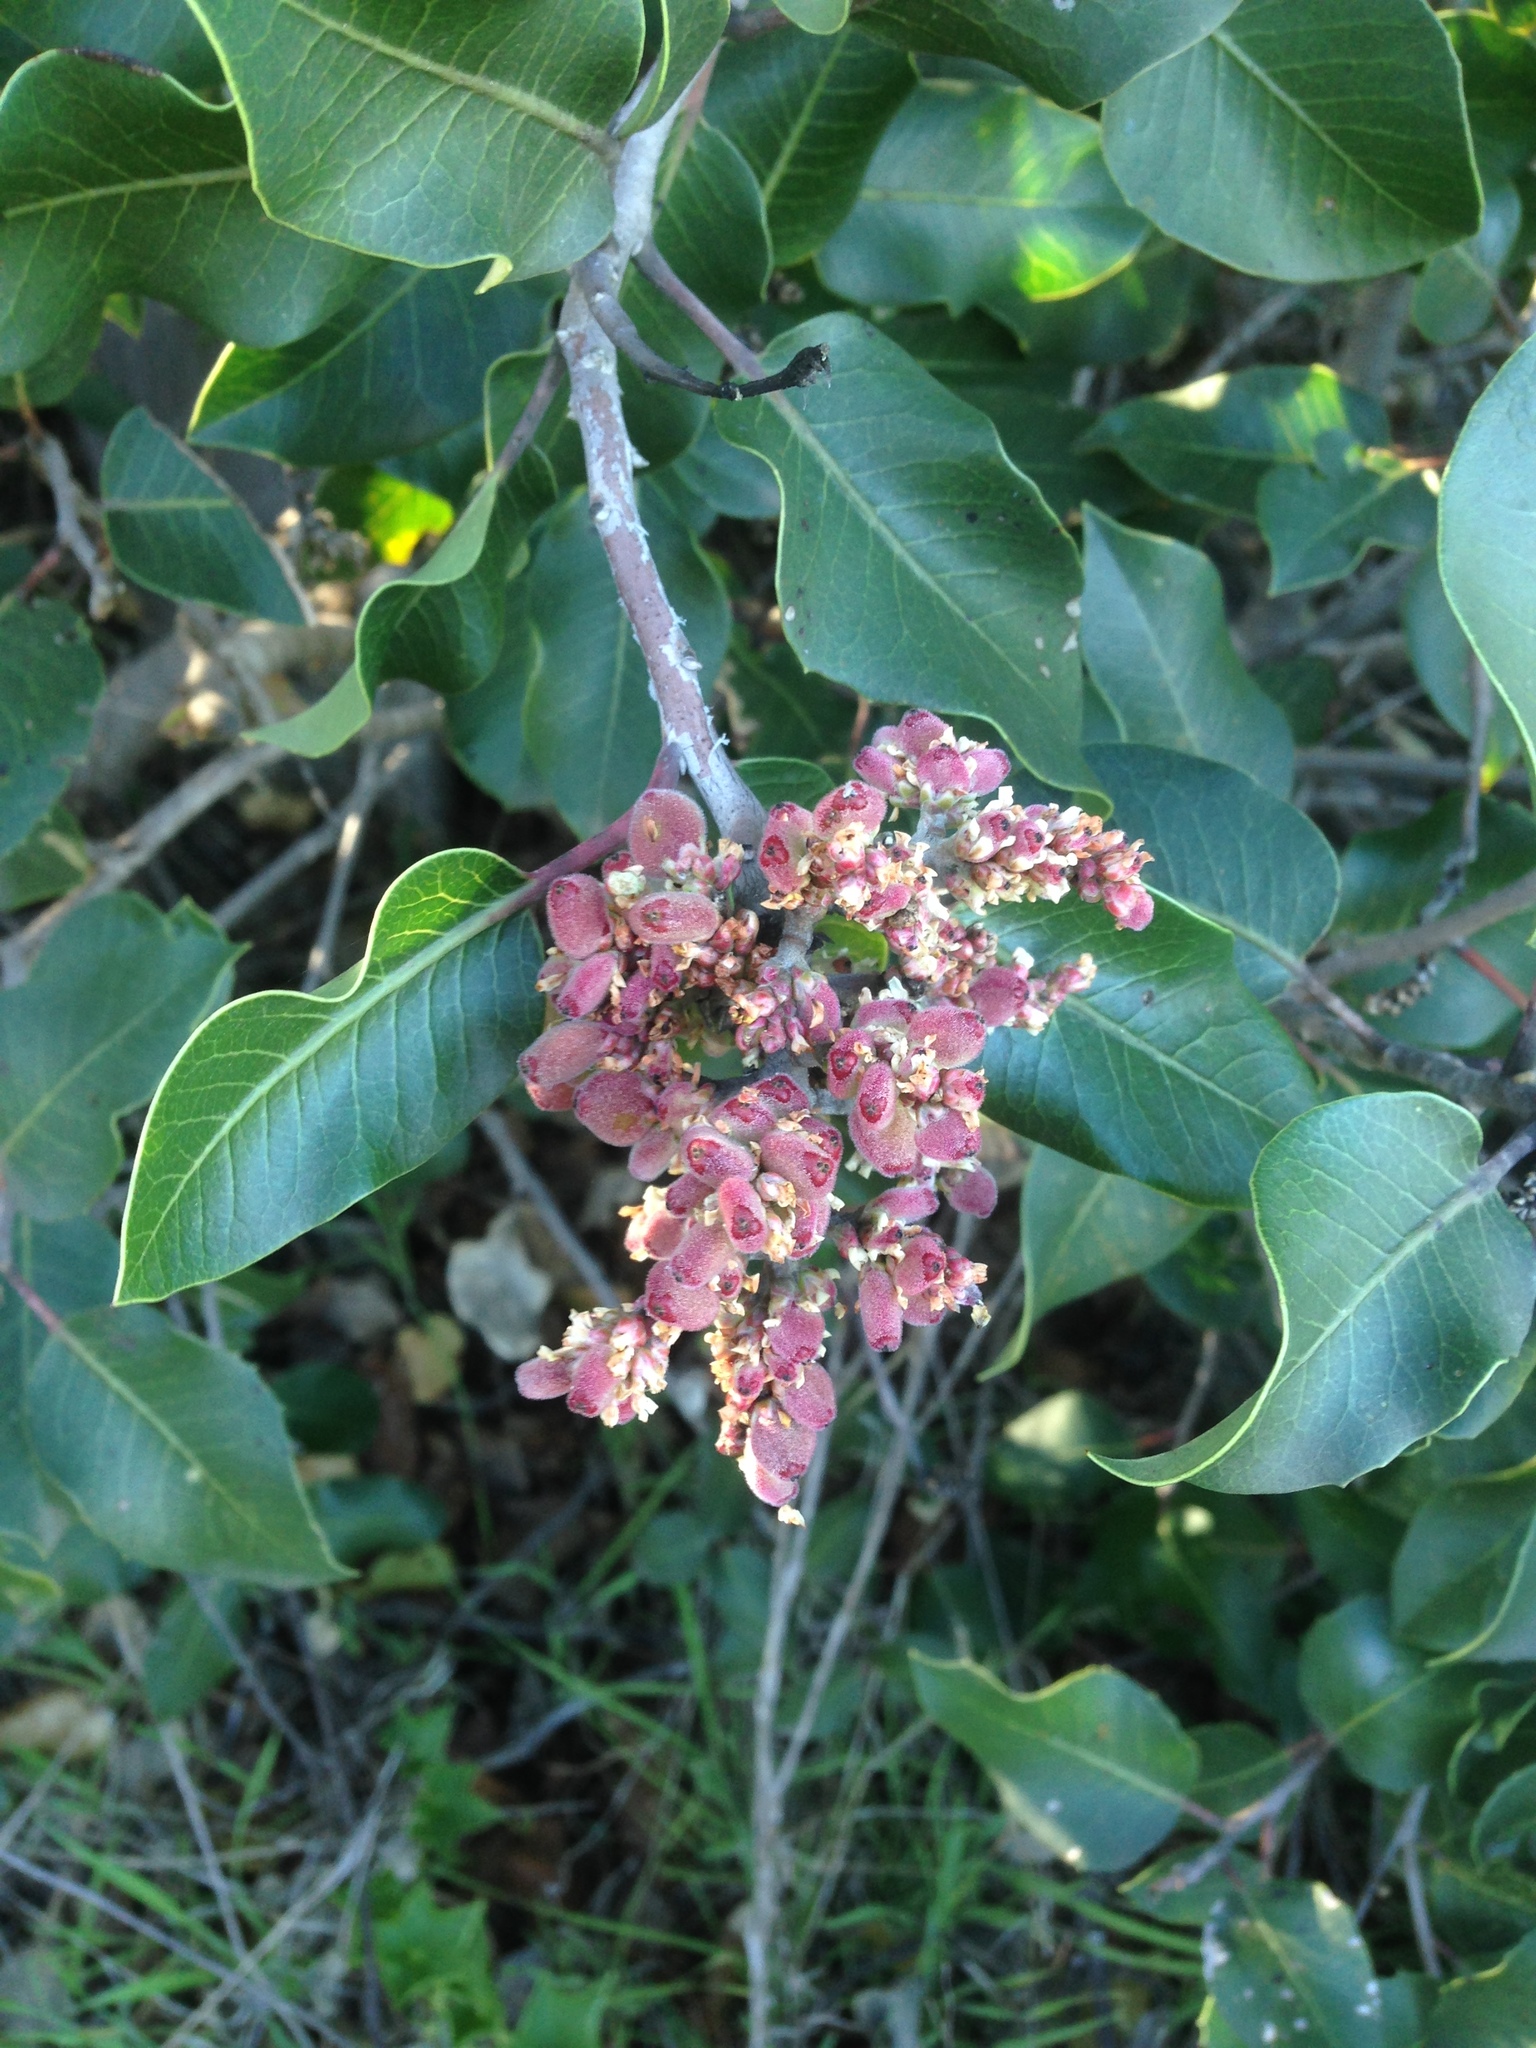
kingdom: Plantae
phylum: Tracheophyta
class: Magnoliopsida
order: Sapindales
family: Anacardiaceae
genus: Rhus
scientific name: Rhus ovata
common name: Sugar sumac
